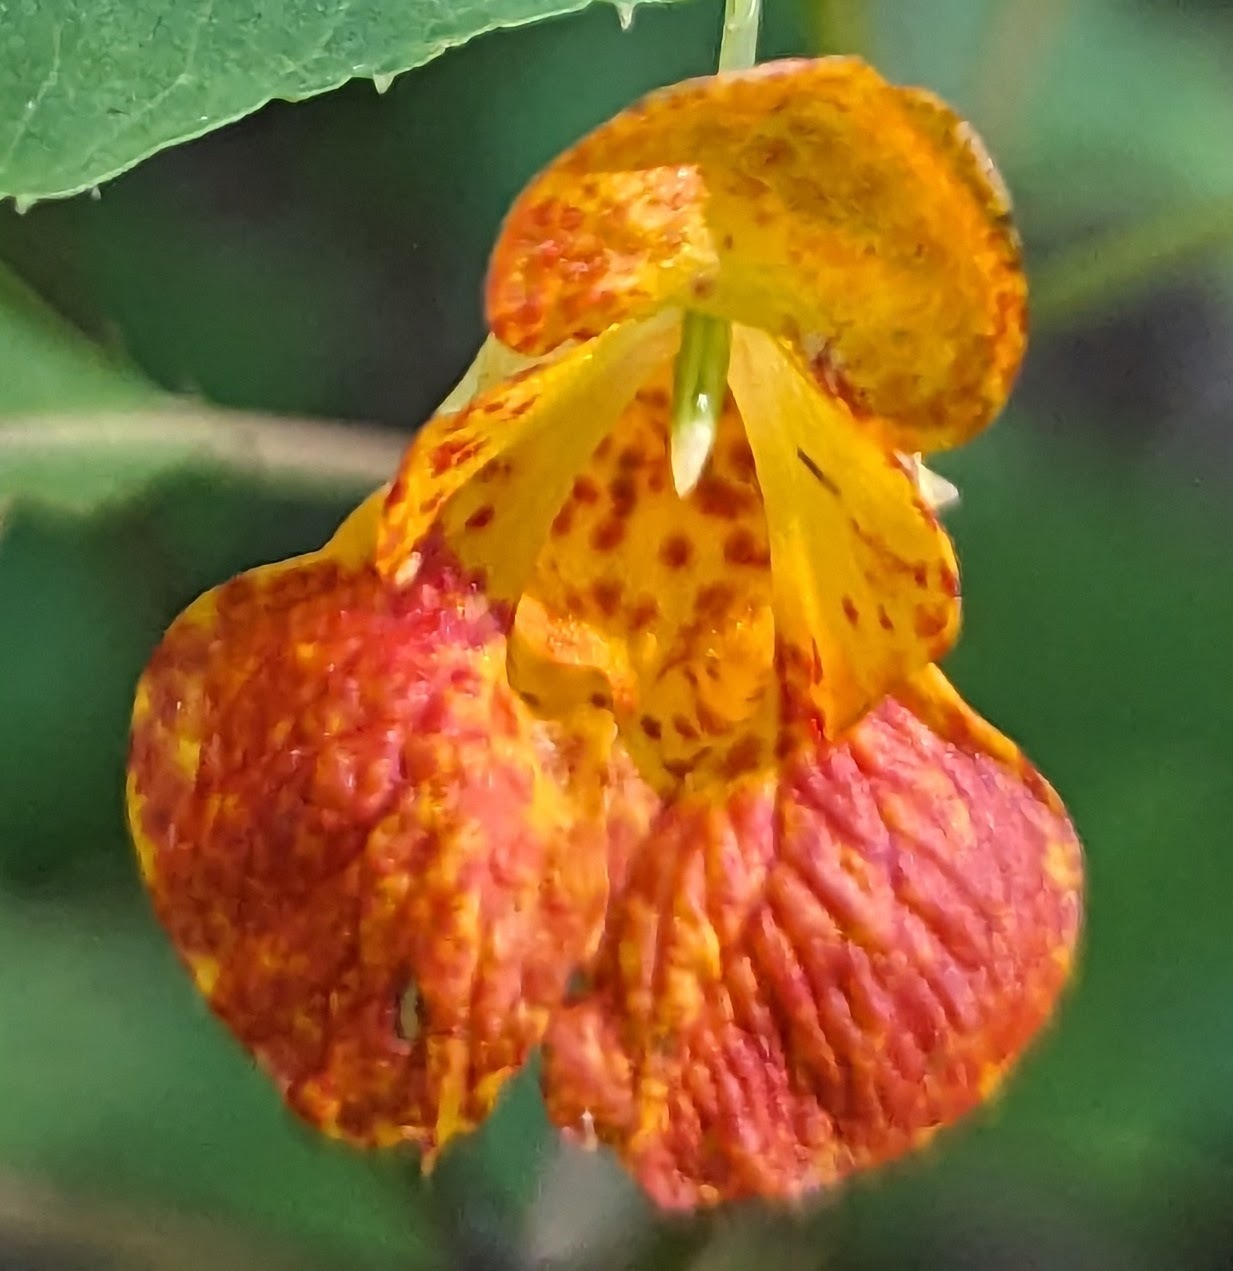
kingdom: Plantae
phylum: Tracheophyta
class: Magnoliopsida
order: Ericales
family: Balsaminaceae
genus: Impatiens
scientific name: Impatiens capensis
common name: Orange balsam
